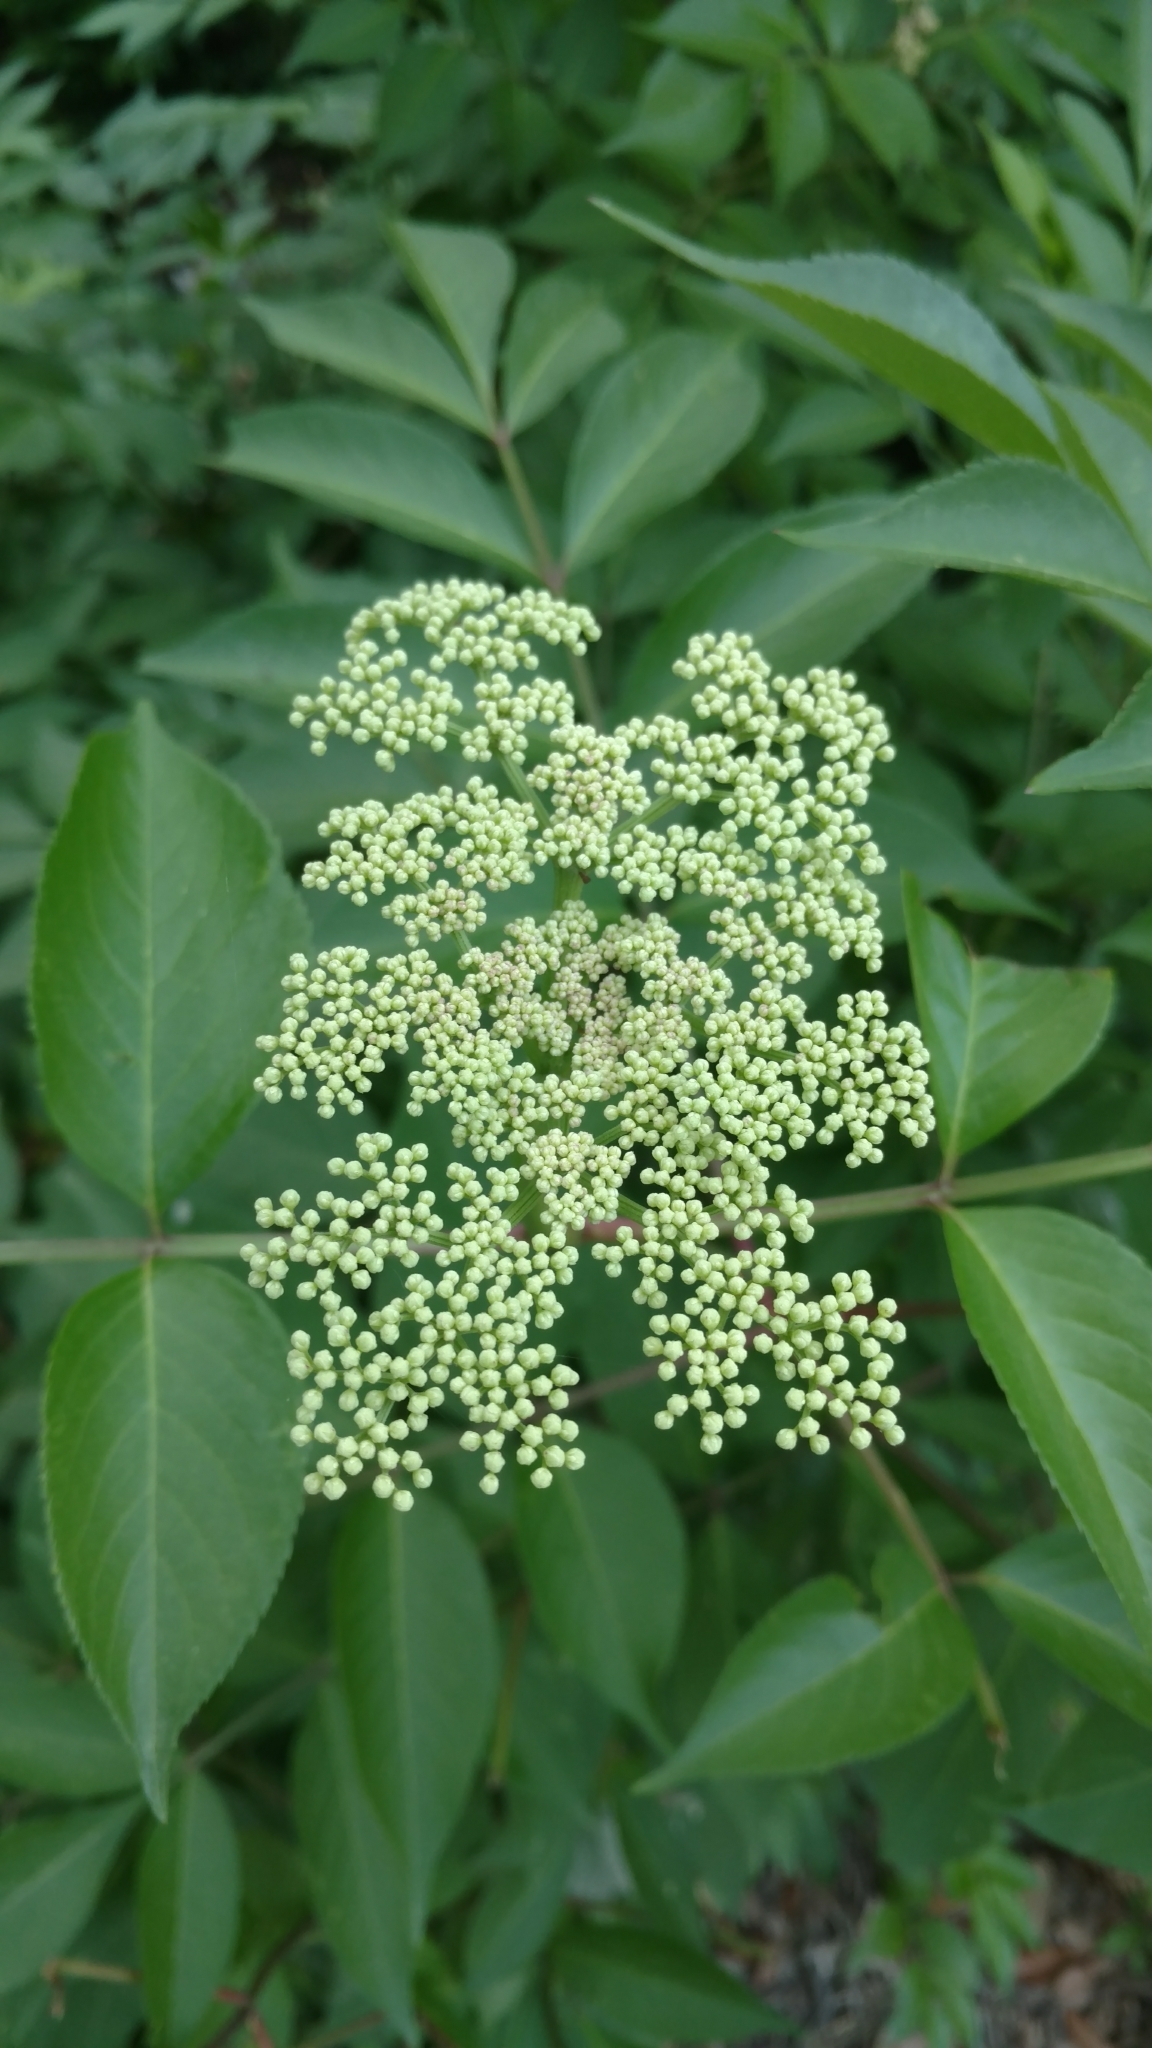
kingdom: Plantae
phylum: Tracheophyta
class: Magnoliopsida
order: Dipsacales
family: Viburnaceae
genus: Sambucus
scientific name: Sambucus canadensis
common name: American elder
